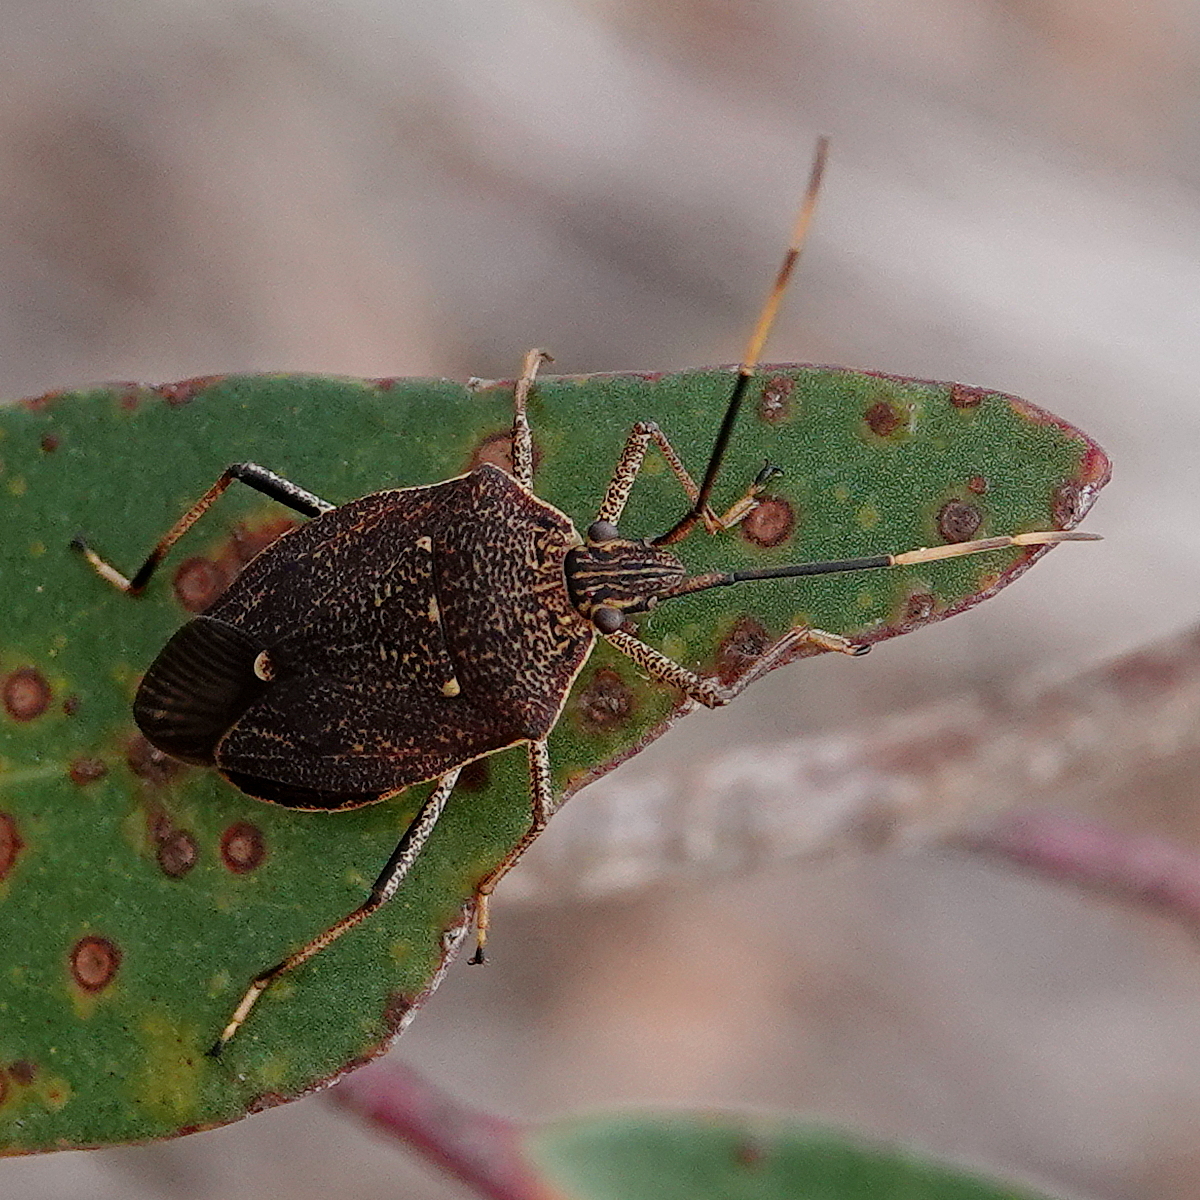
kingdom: Animalia
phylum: Arthropoda
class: Insecta
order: Hemiptera
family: Pentatomidae
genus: Poecilometis
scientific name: Poecilometis
